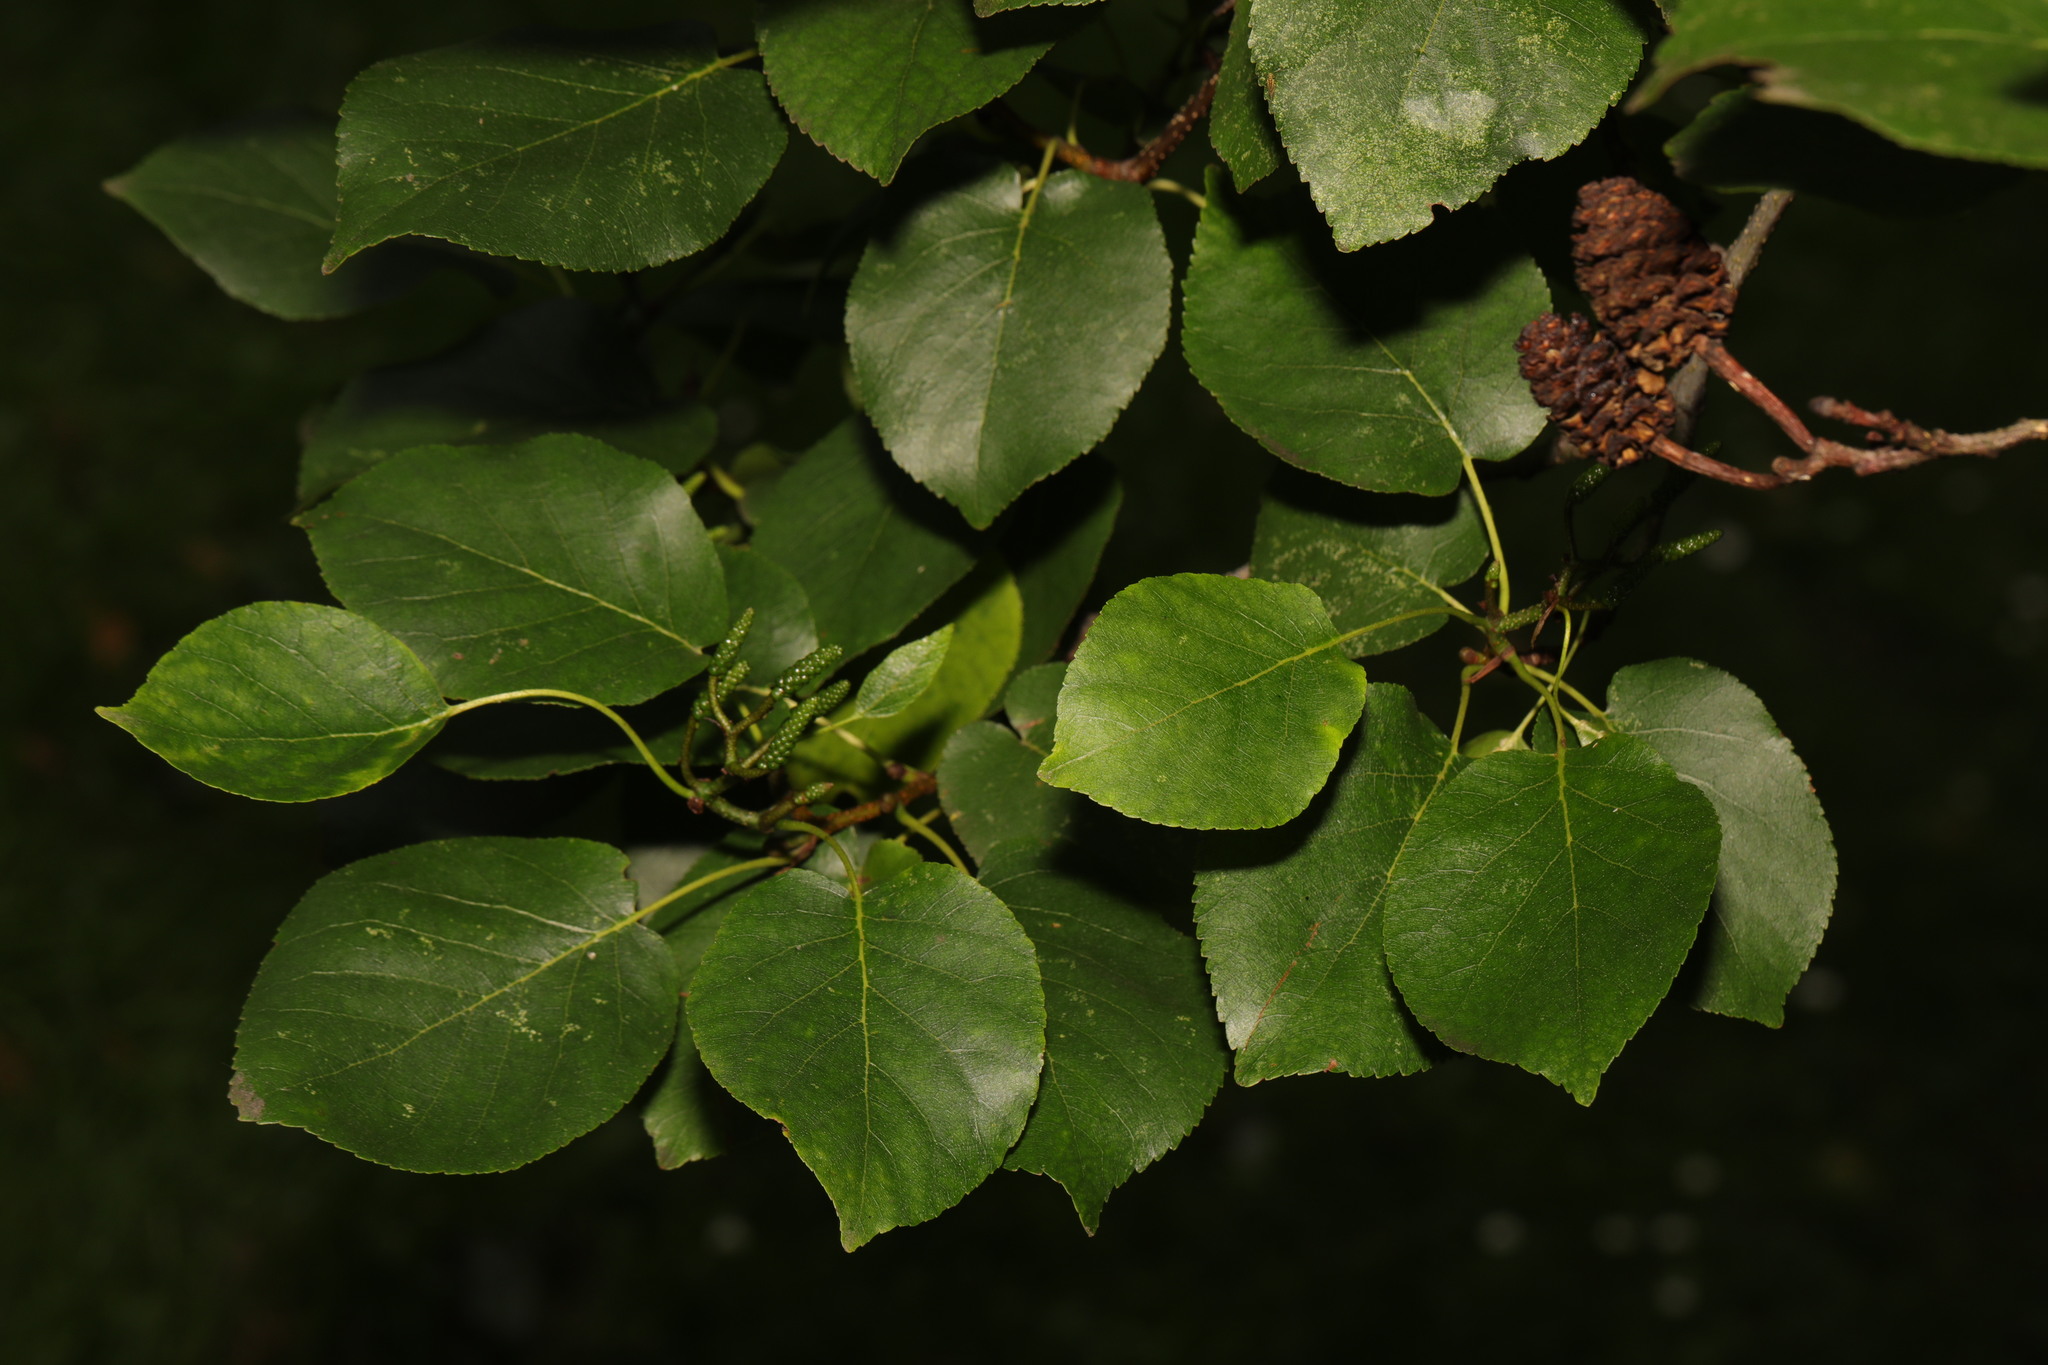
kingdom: Plantae
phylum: Tracheophyta
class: Magnoliopsida
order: Fagales
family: Betulaceae
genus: Alnus
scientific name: Alnus cordata
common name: Italian alder
